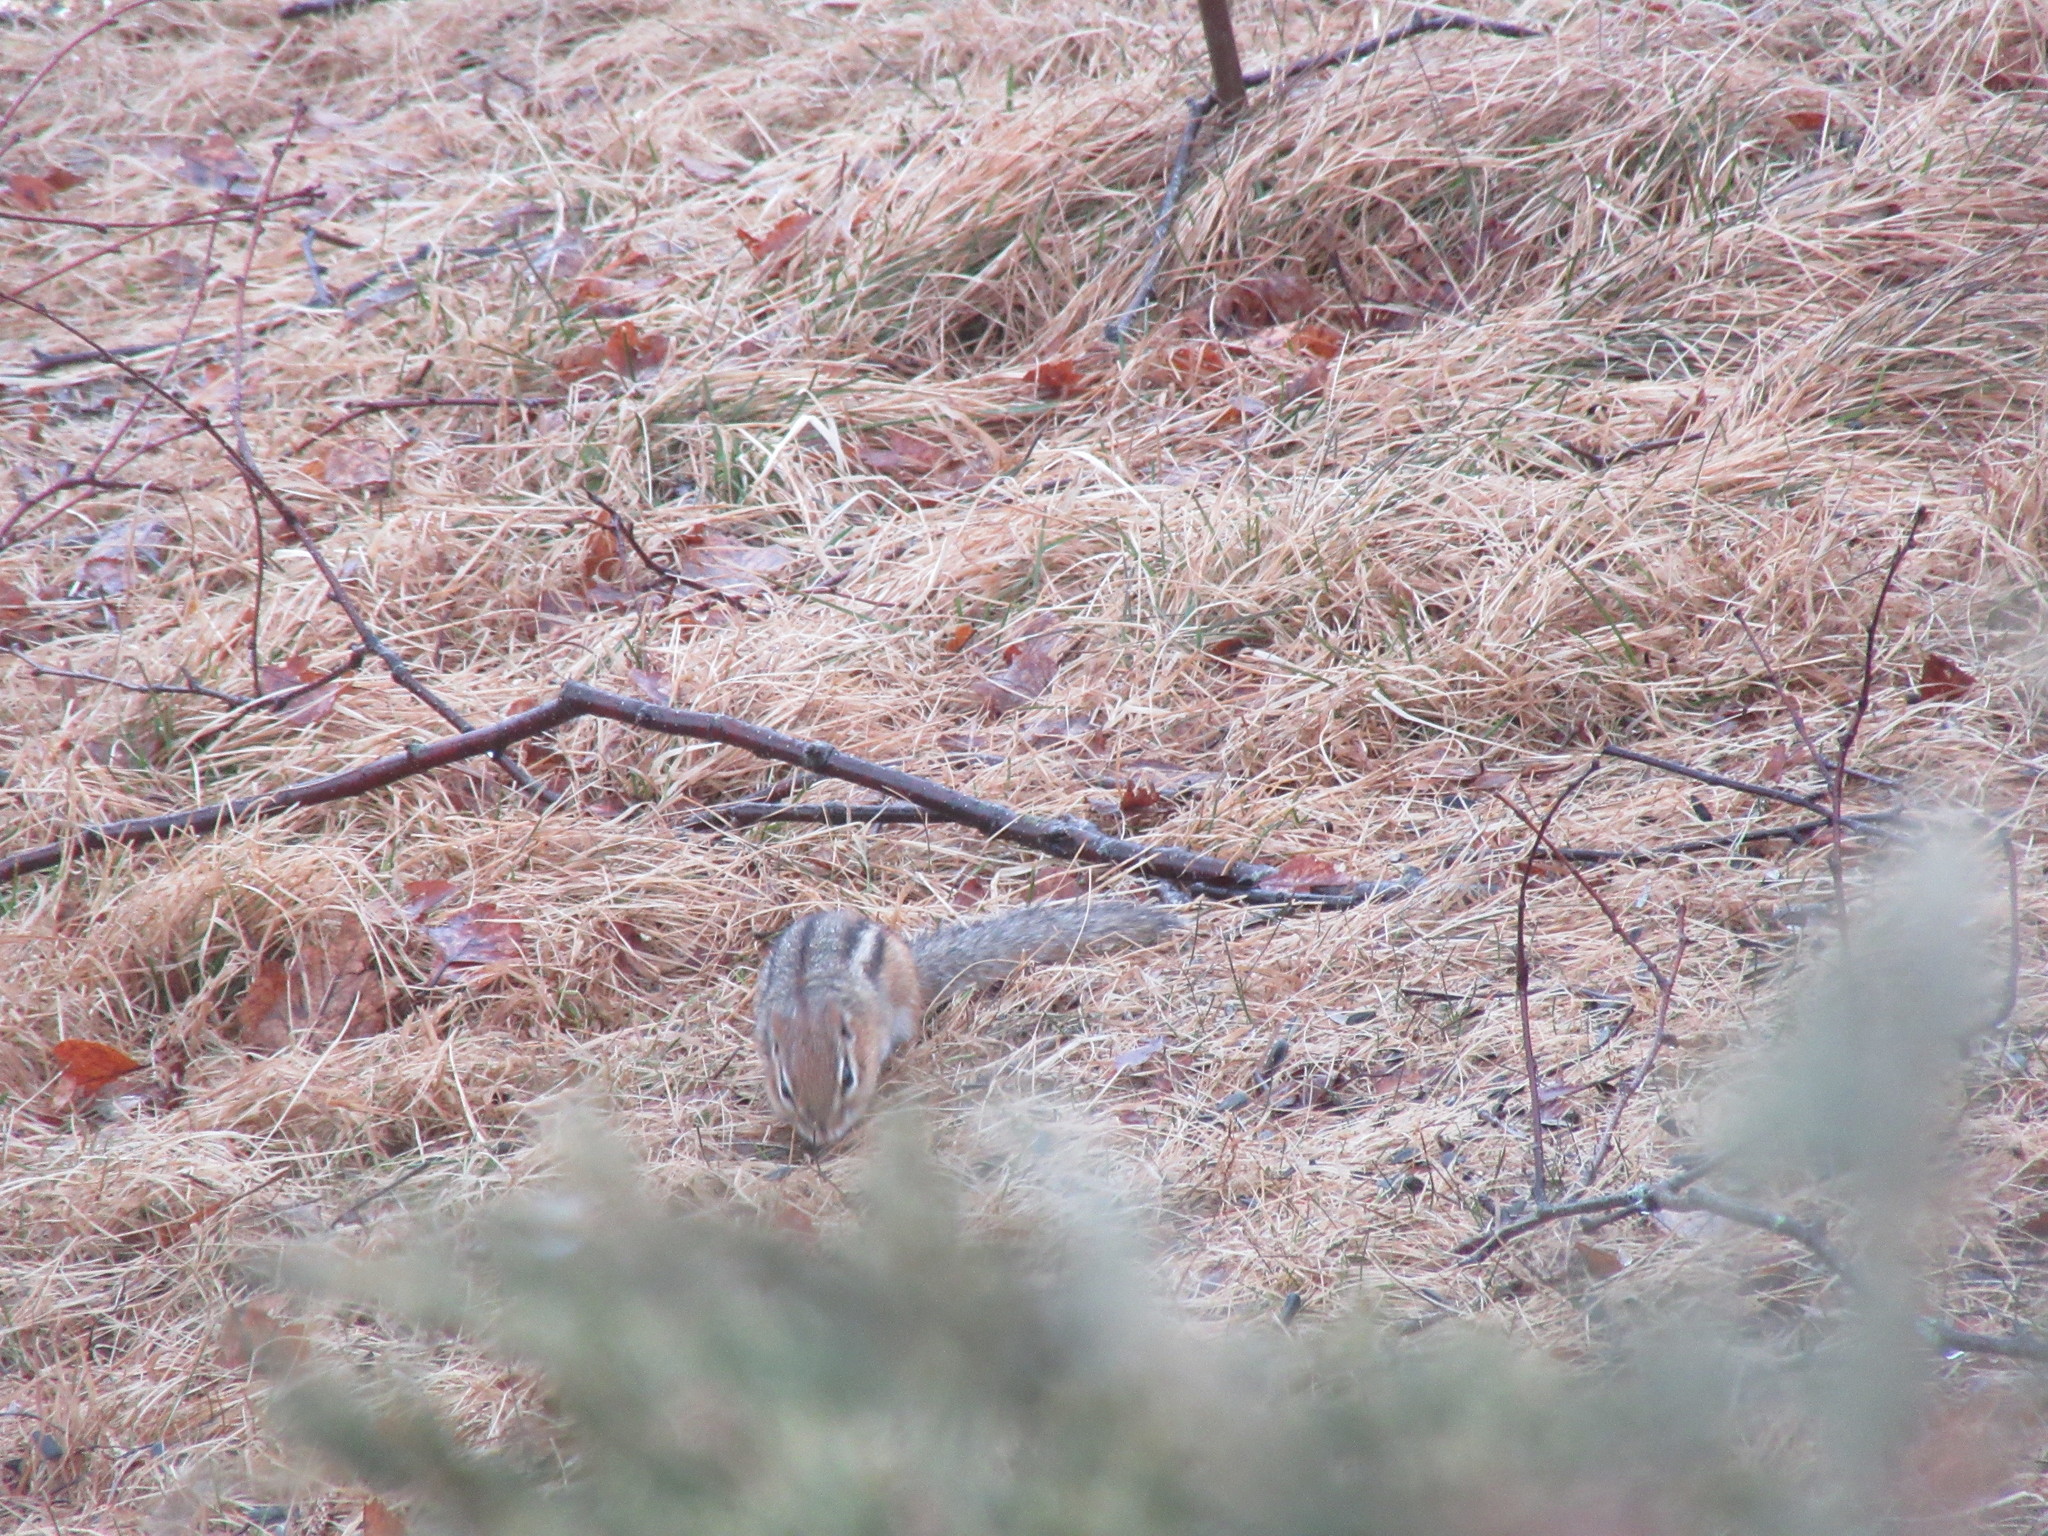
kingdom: Animalia
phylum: Chordata
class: Mammalia
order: Rodentia
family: Sciuridae
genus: Tamias
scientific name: Tamias striatus
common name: Eastern chipmunk
